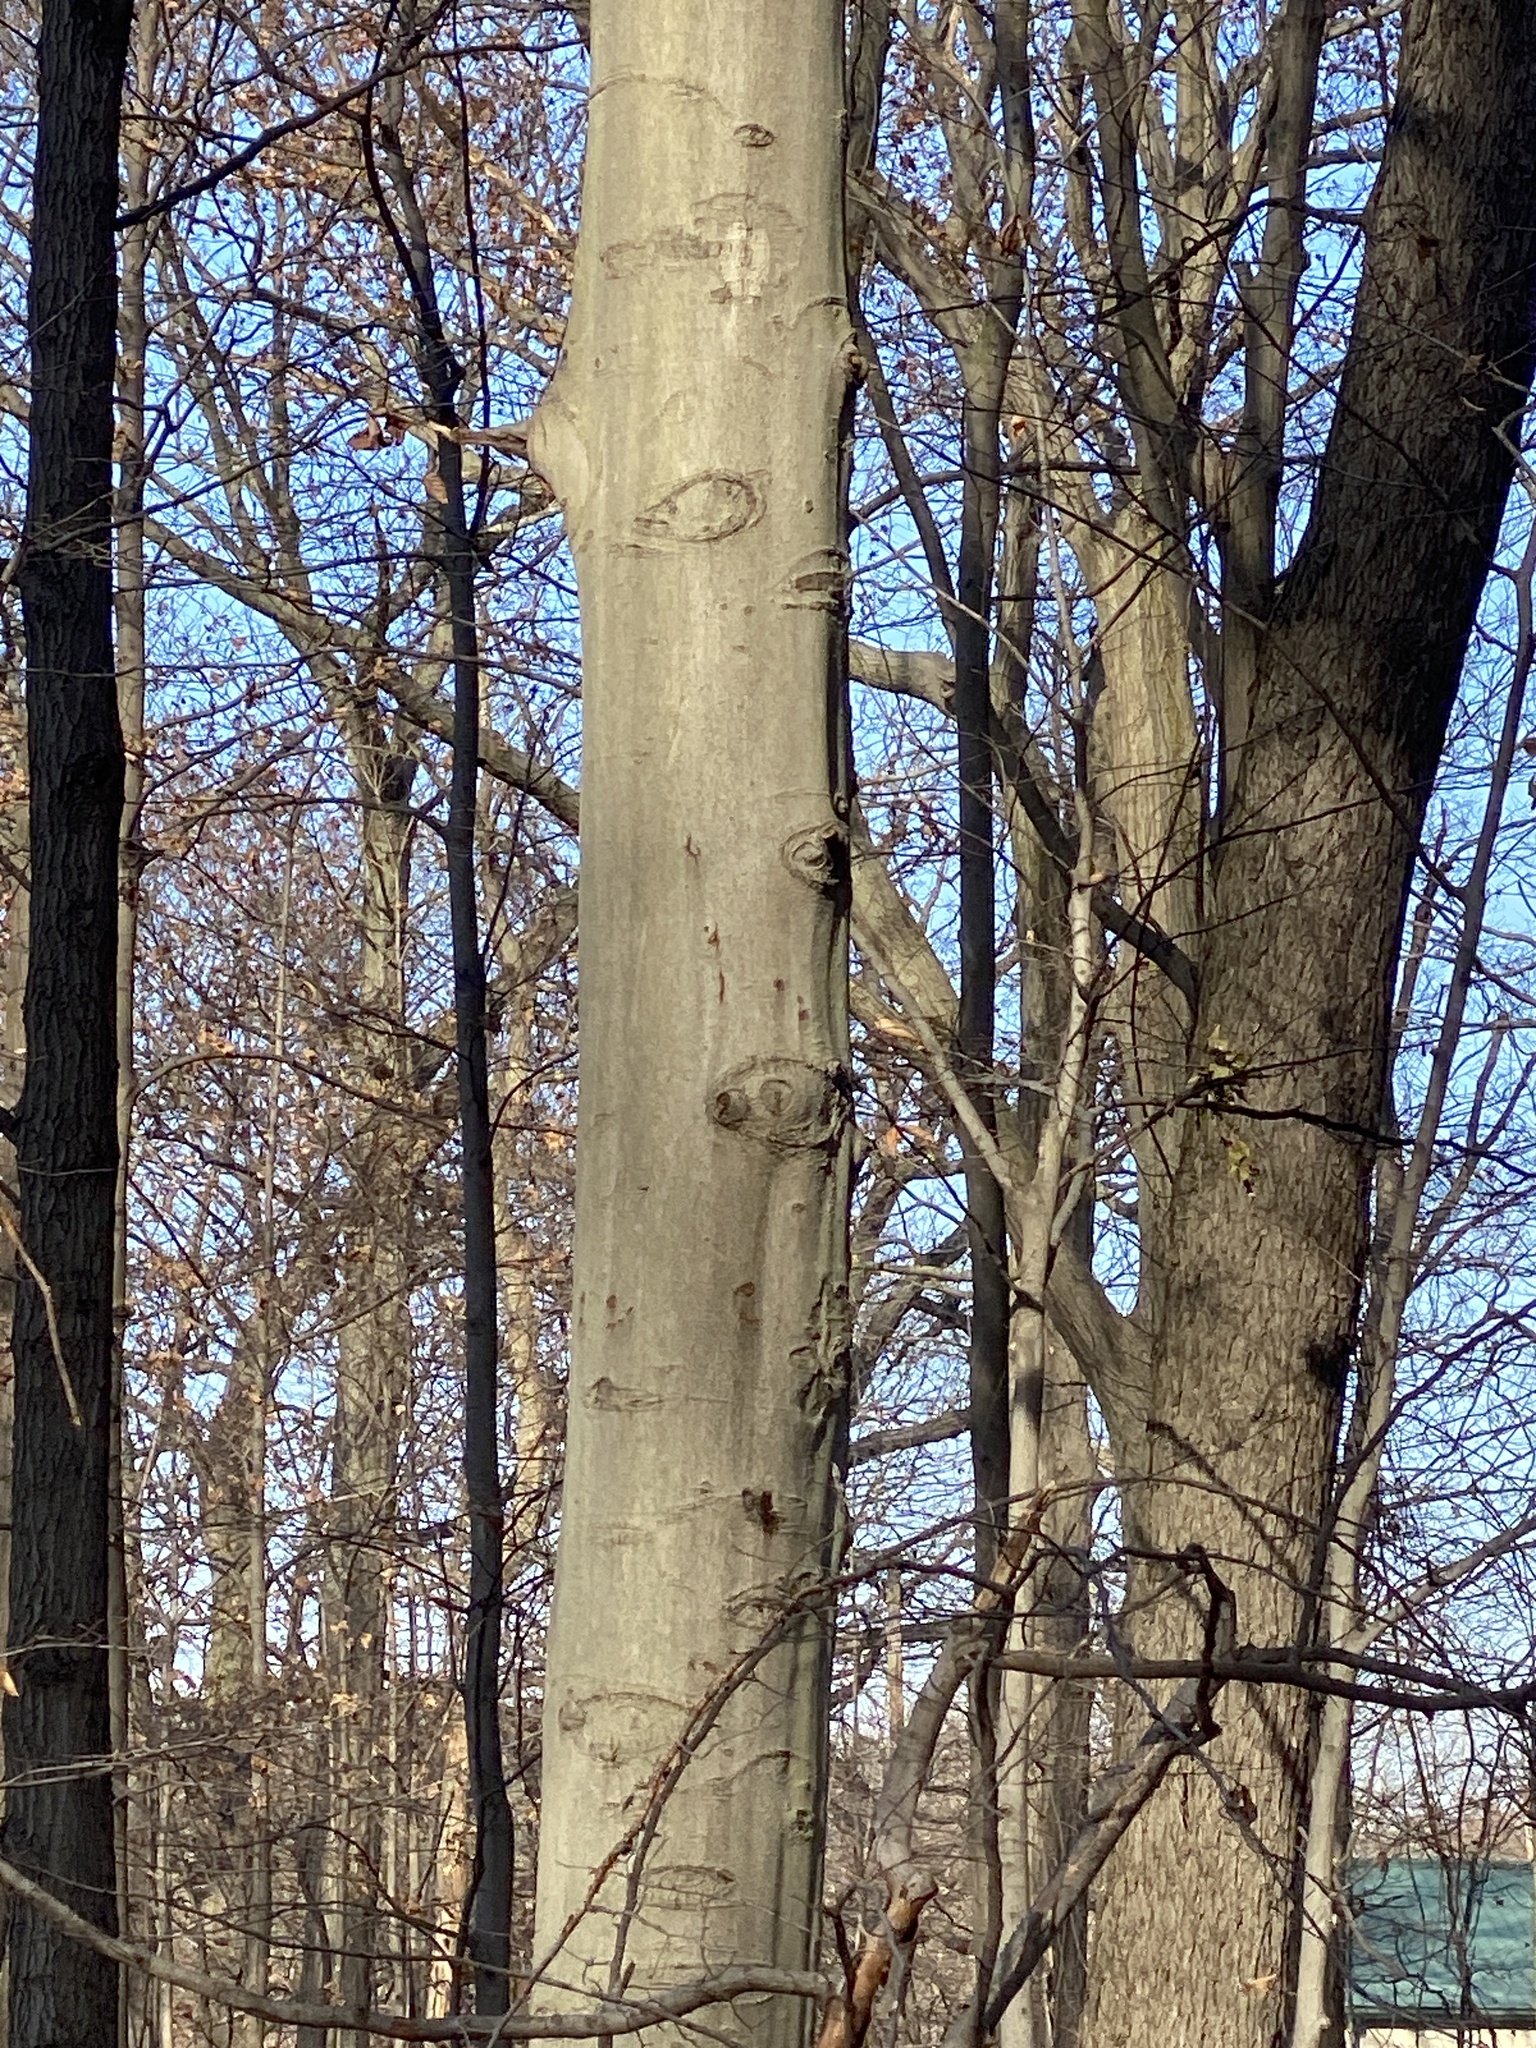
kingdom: Plantae
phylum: Tracheophyta
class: Magnoliopsida
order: Fagales
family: Fagaceae
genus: Fagus
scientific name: Fagus grandifolia
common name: American beech
